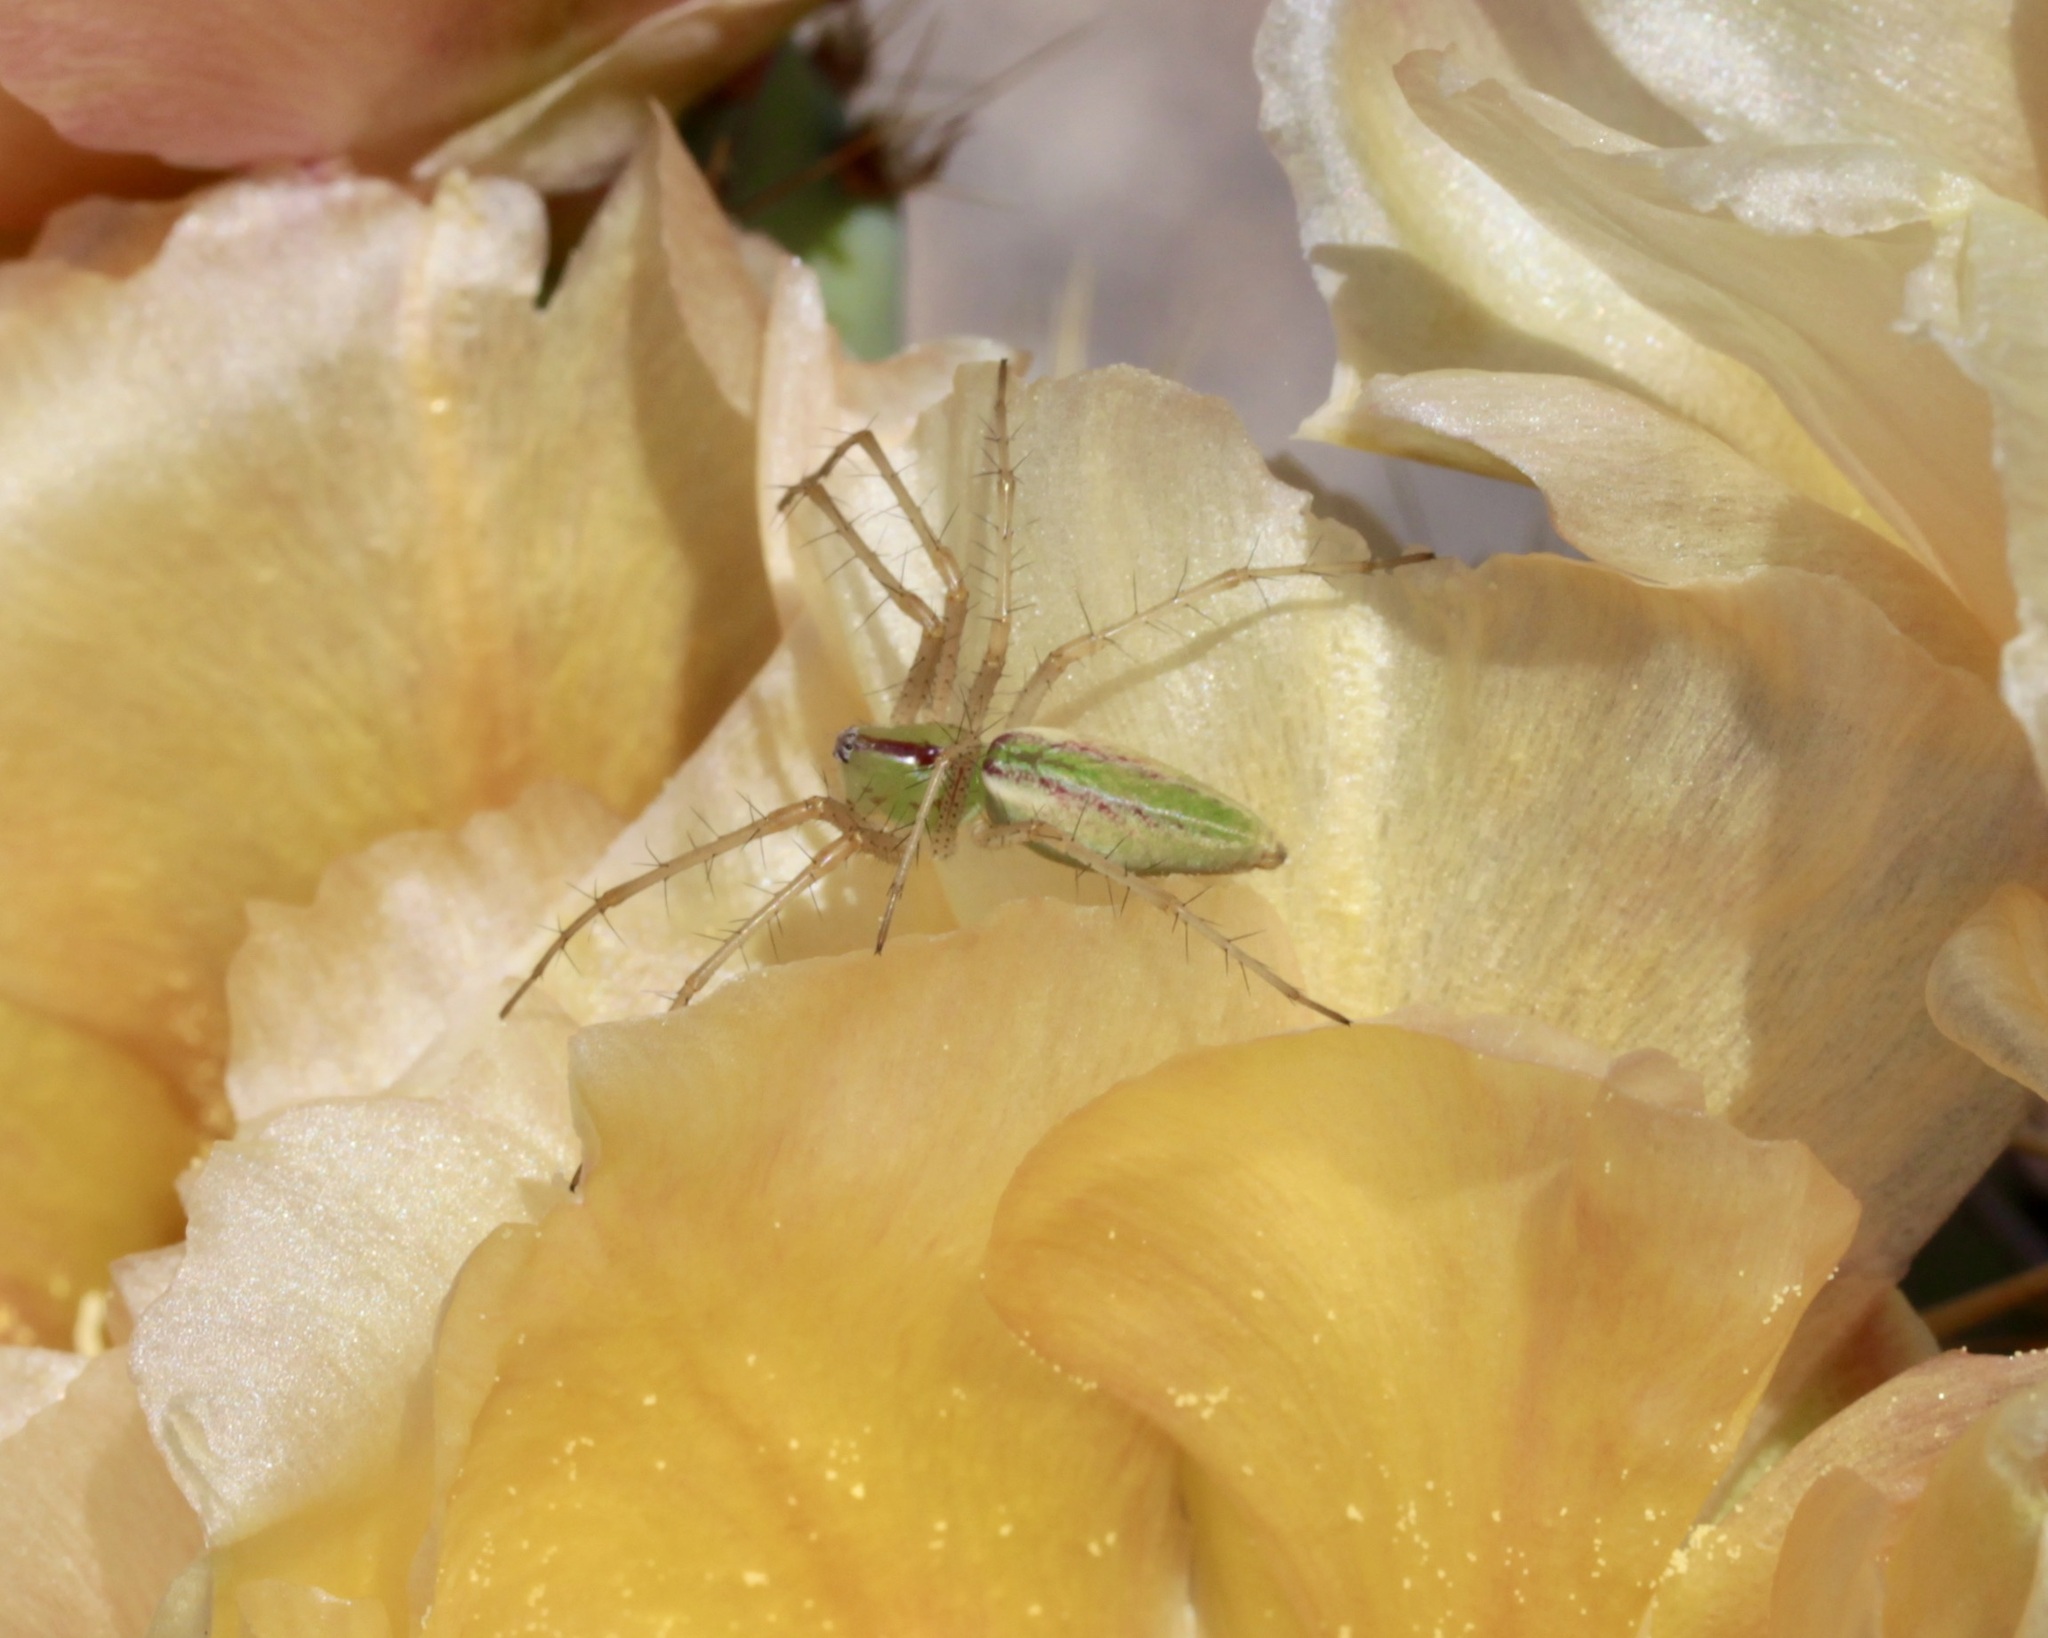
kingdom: Animalia
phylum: Arthropoda
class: Arachnida
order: Araneae
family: Oxyopidae
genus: Peucetia
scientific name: Peucetia viridans
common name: Lynx spiders
